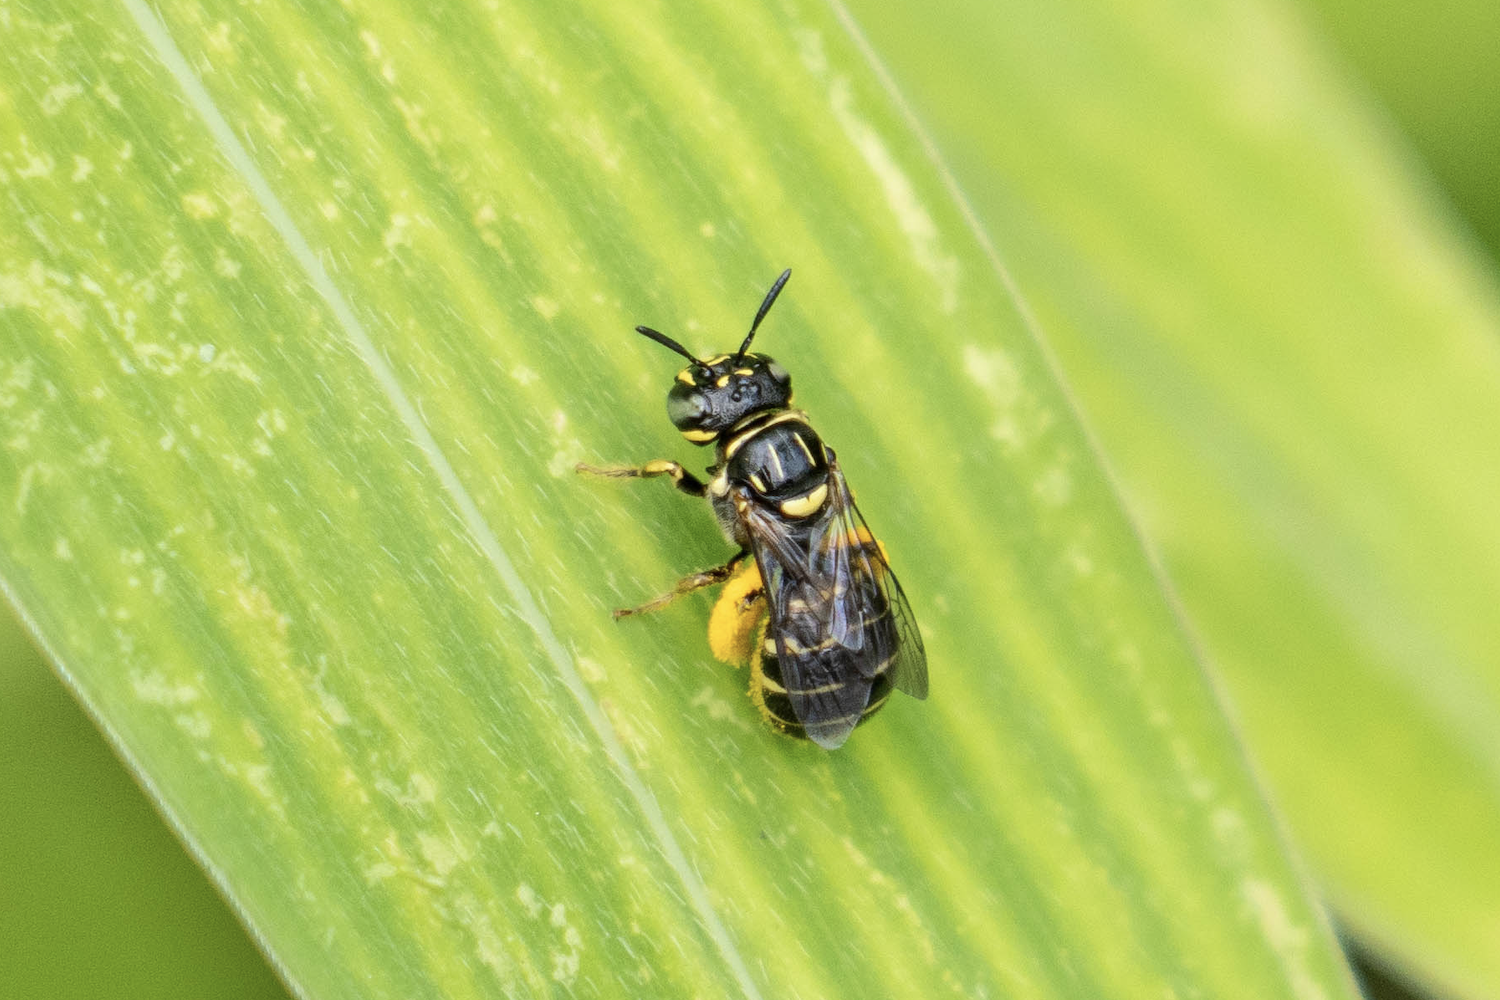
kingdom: Animalia
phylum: Arthropoda
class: Insecta
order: Hymenoptera
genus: Ceratinidia
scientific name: Ceratinidia
